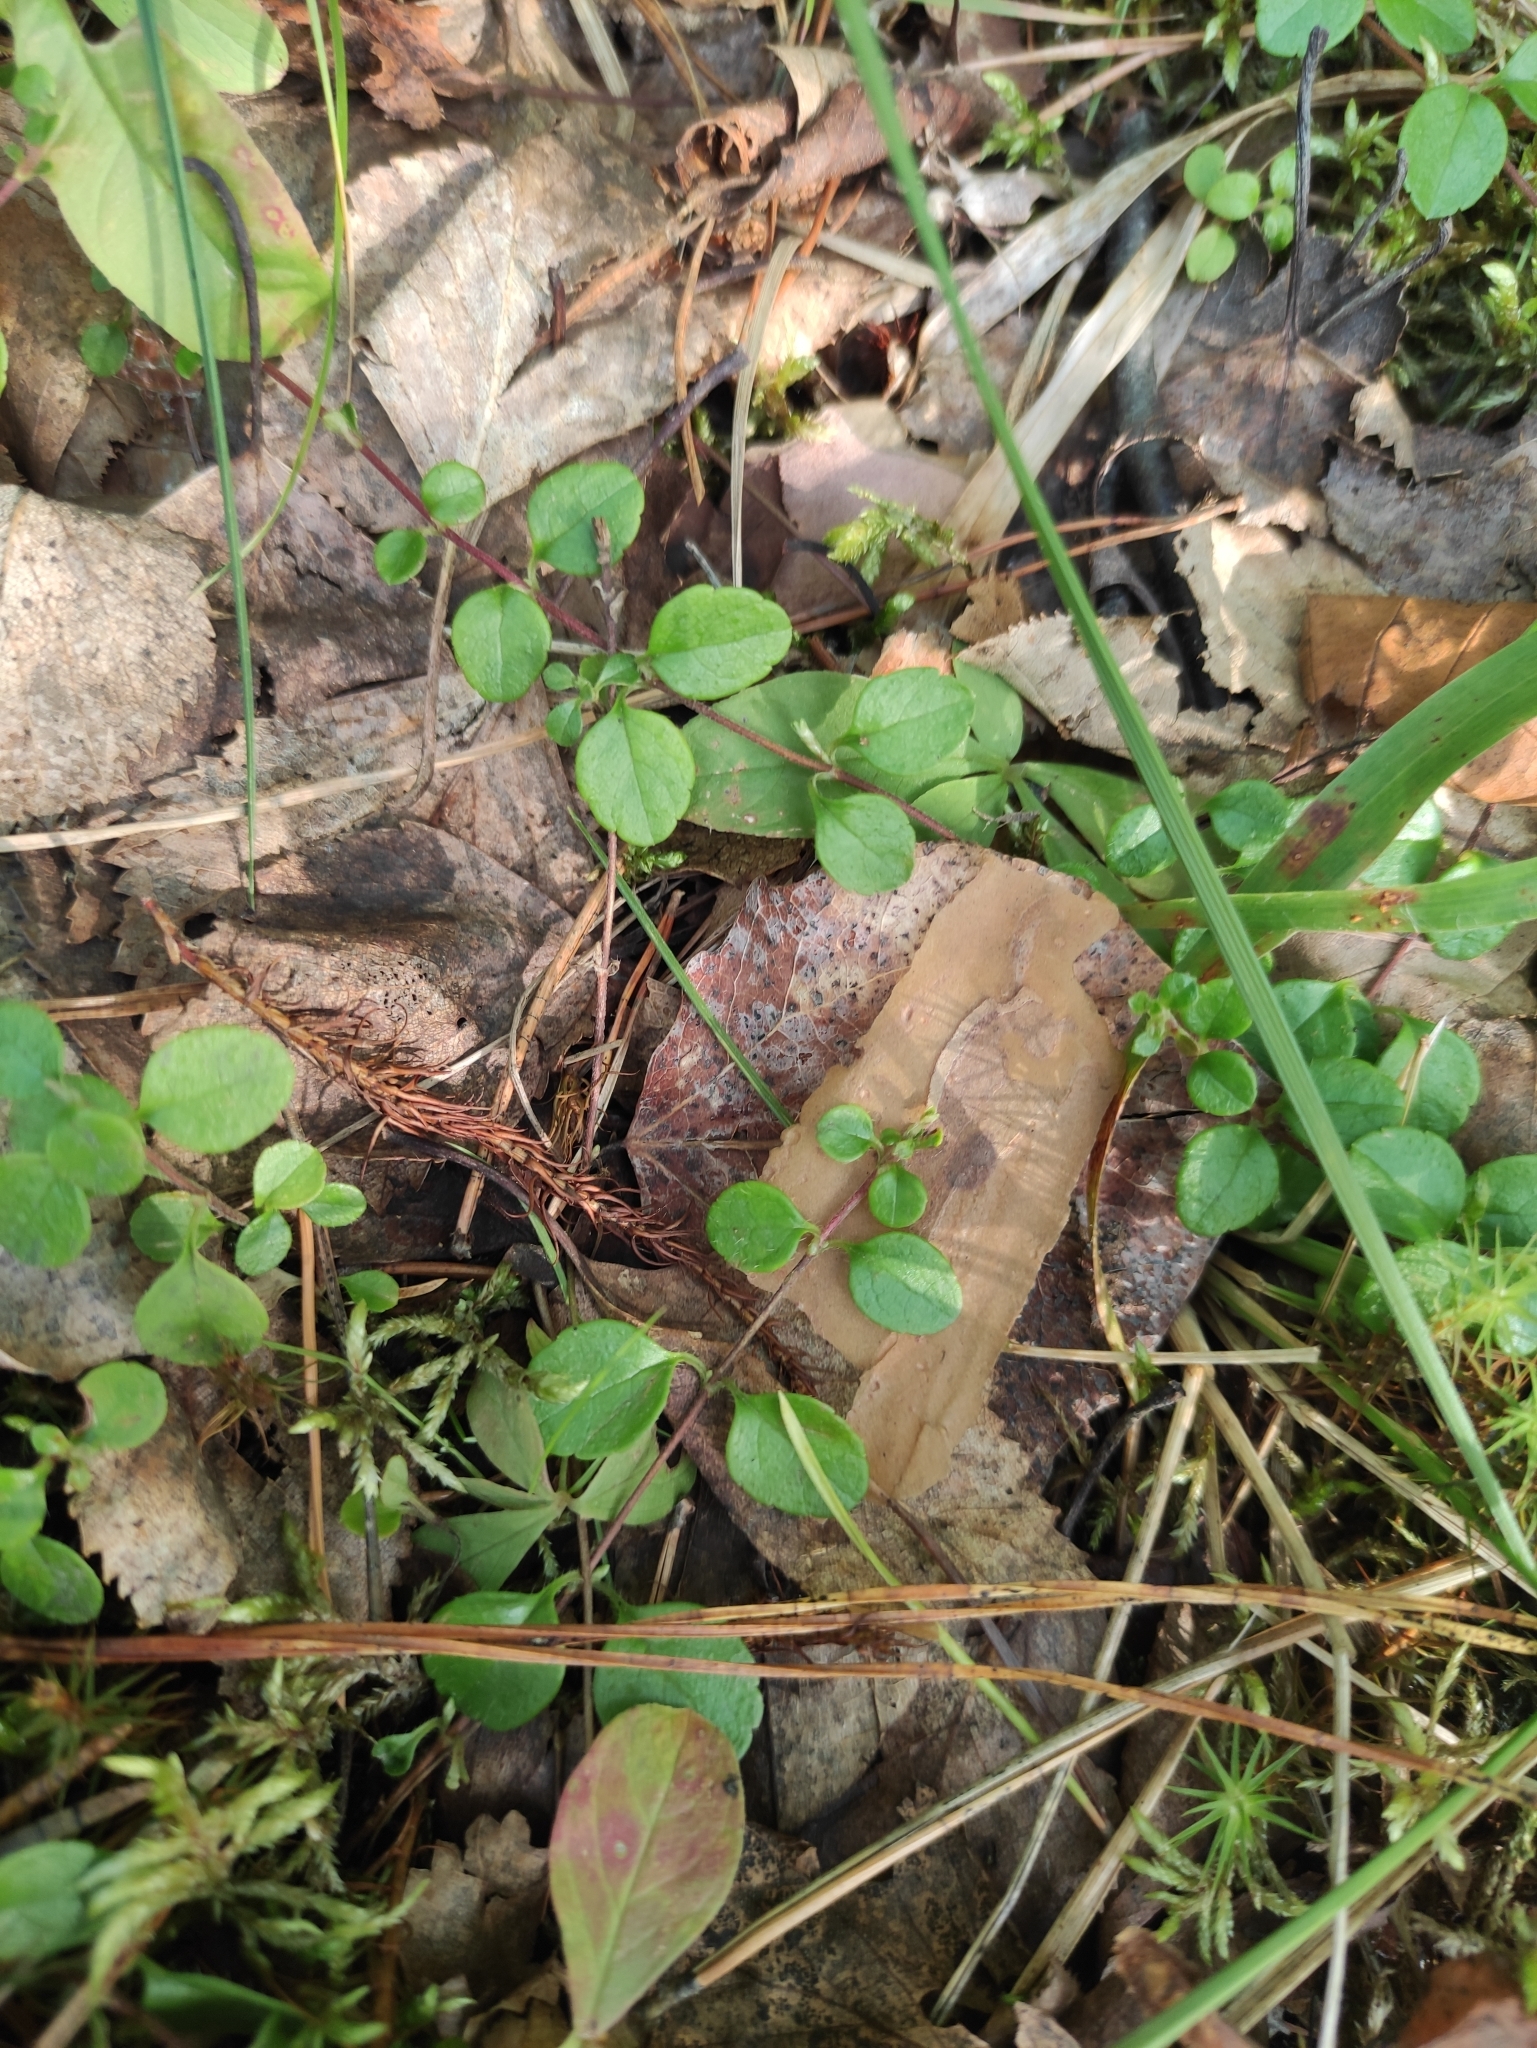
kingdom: Plantae
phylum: Tracheophyta
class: Magnoliopsida
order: Dipsacales
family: Caprifoliaceae
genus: Linnaea
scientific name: Linnaea borealis
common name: Twinflower
